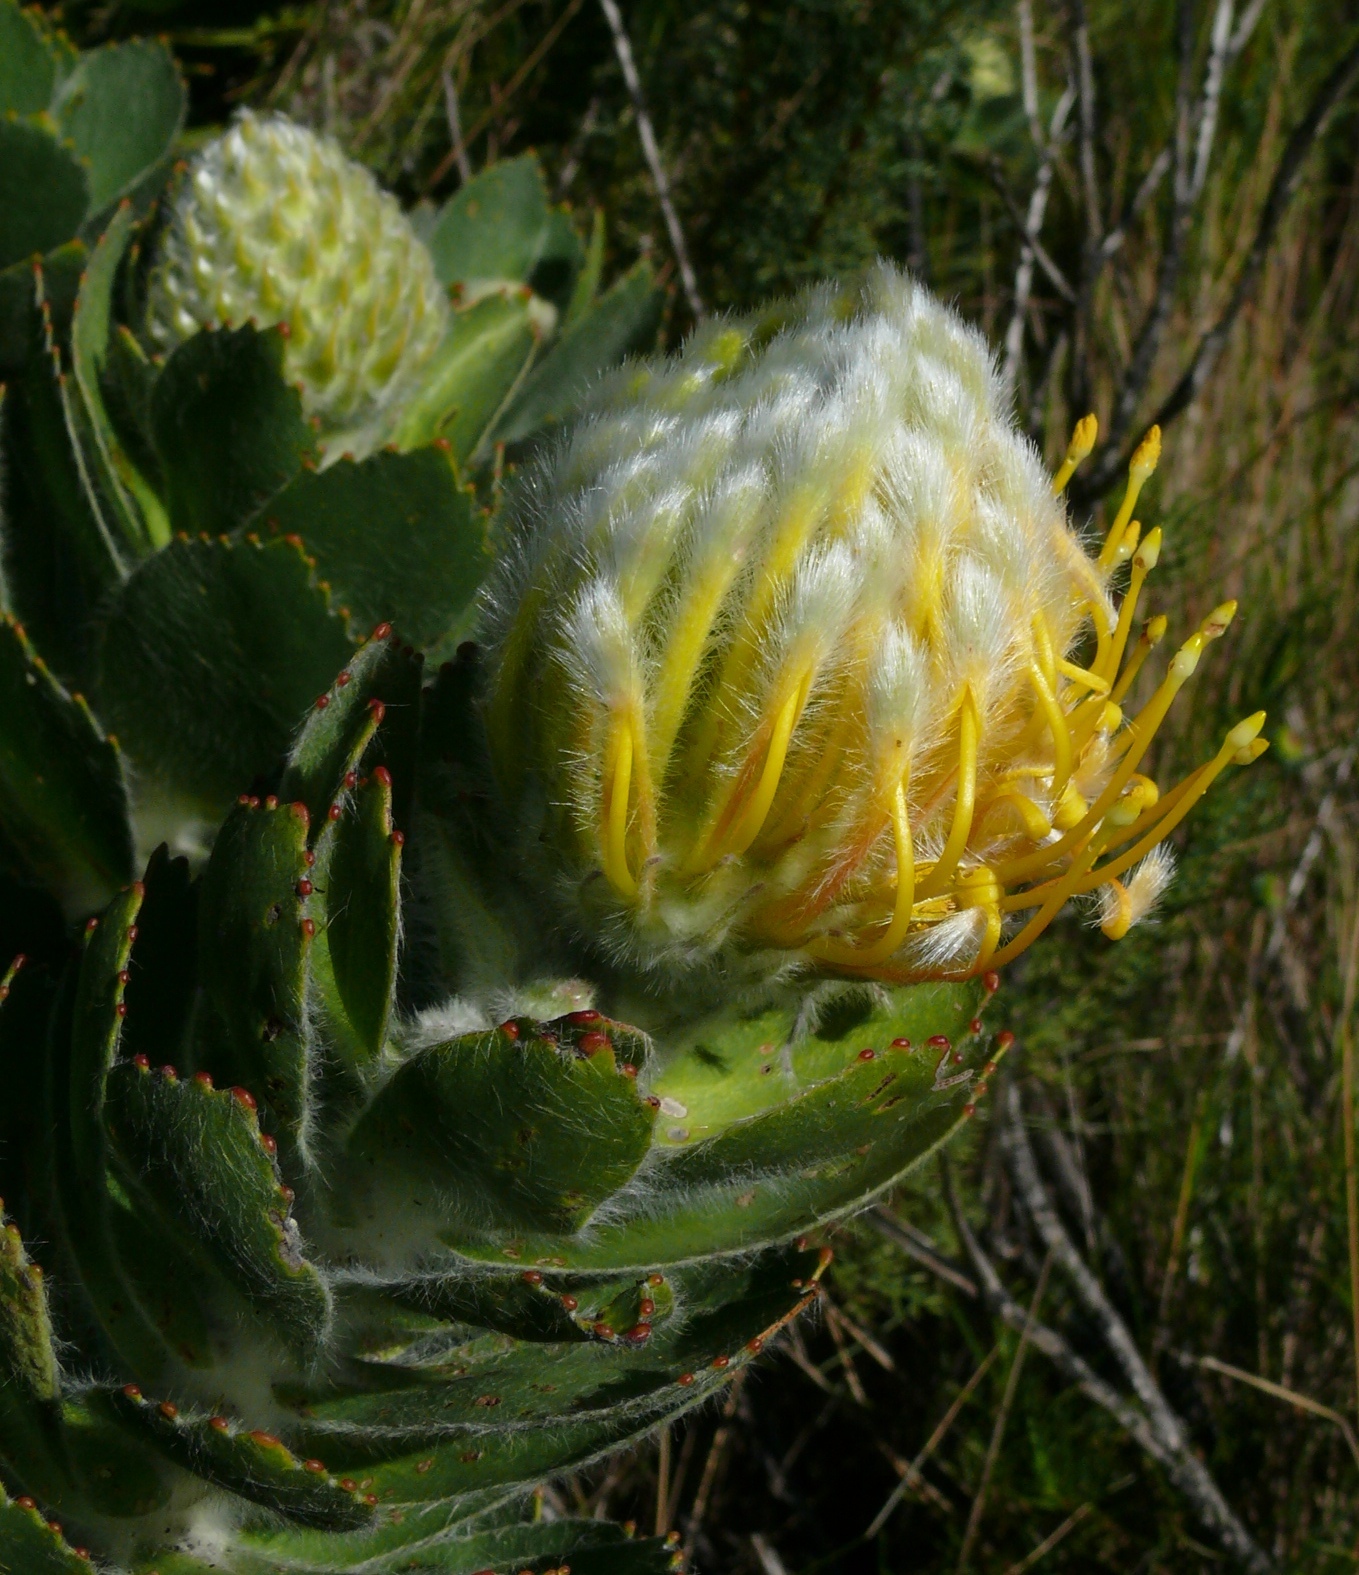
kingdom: Plantae
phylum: Tracheophyta
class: Magnoliopsida
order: Proteales
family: Proteaceae
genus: Leucospermum
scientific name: Leucospermum conocarpodendron
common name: Tree pincushion
